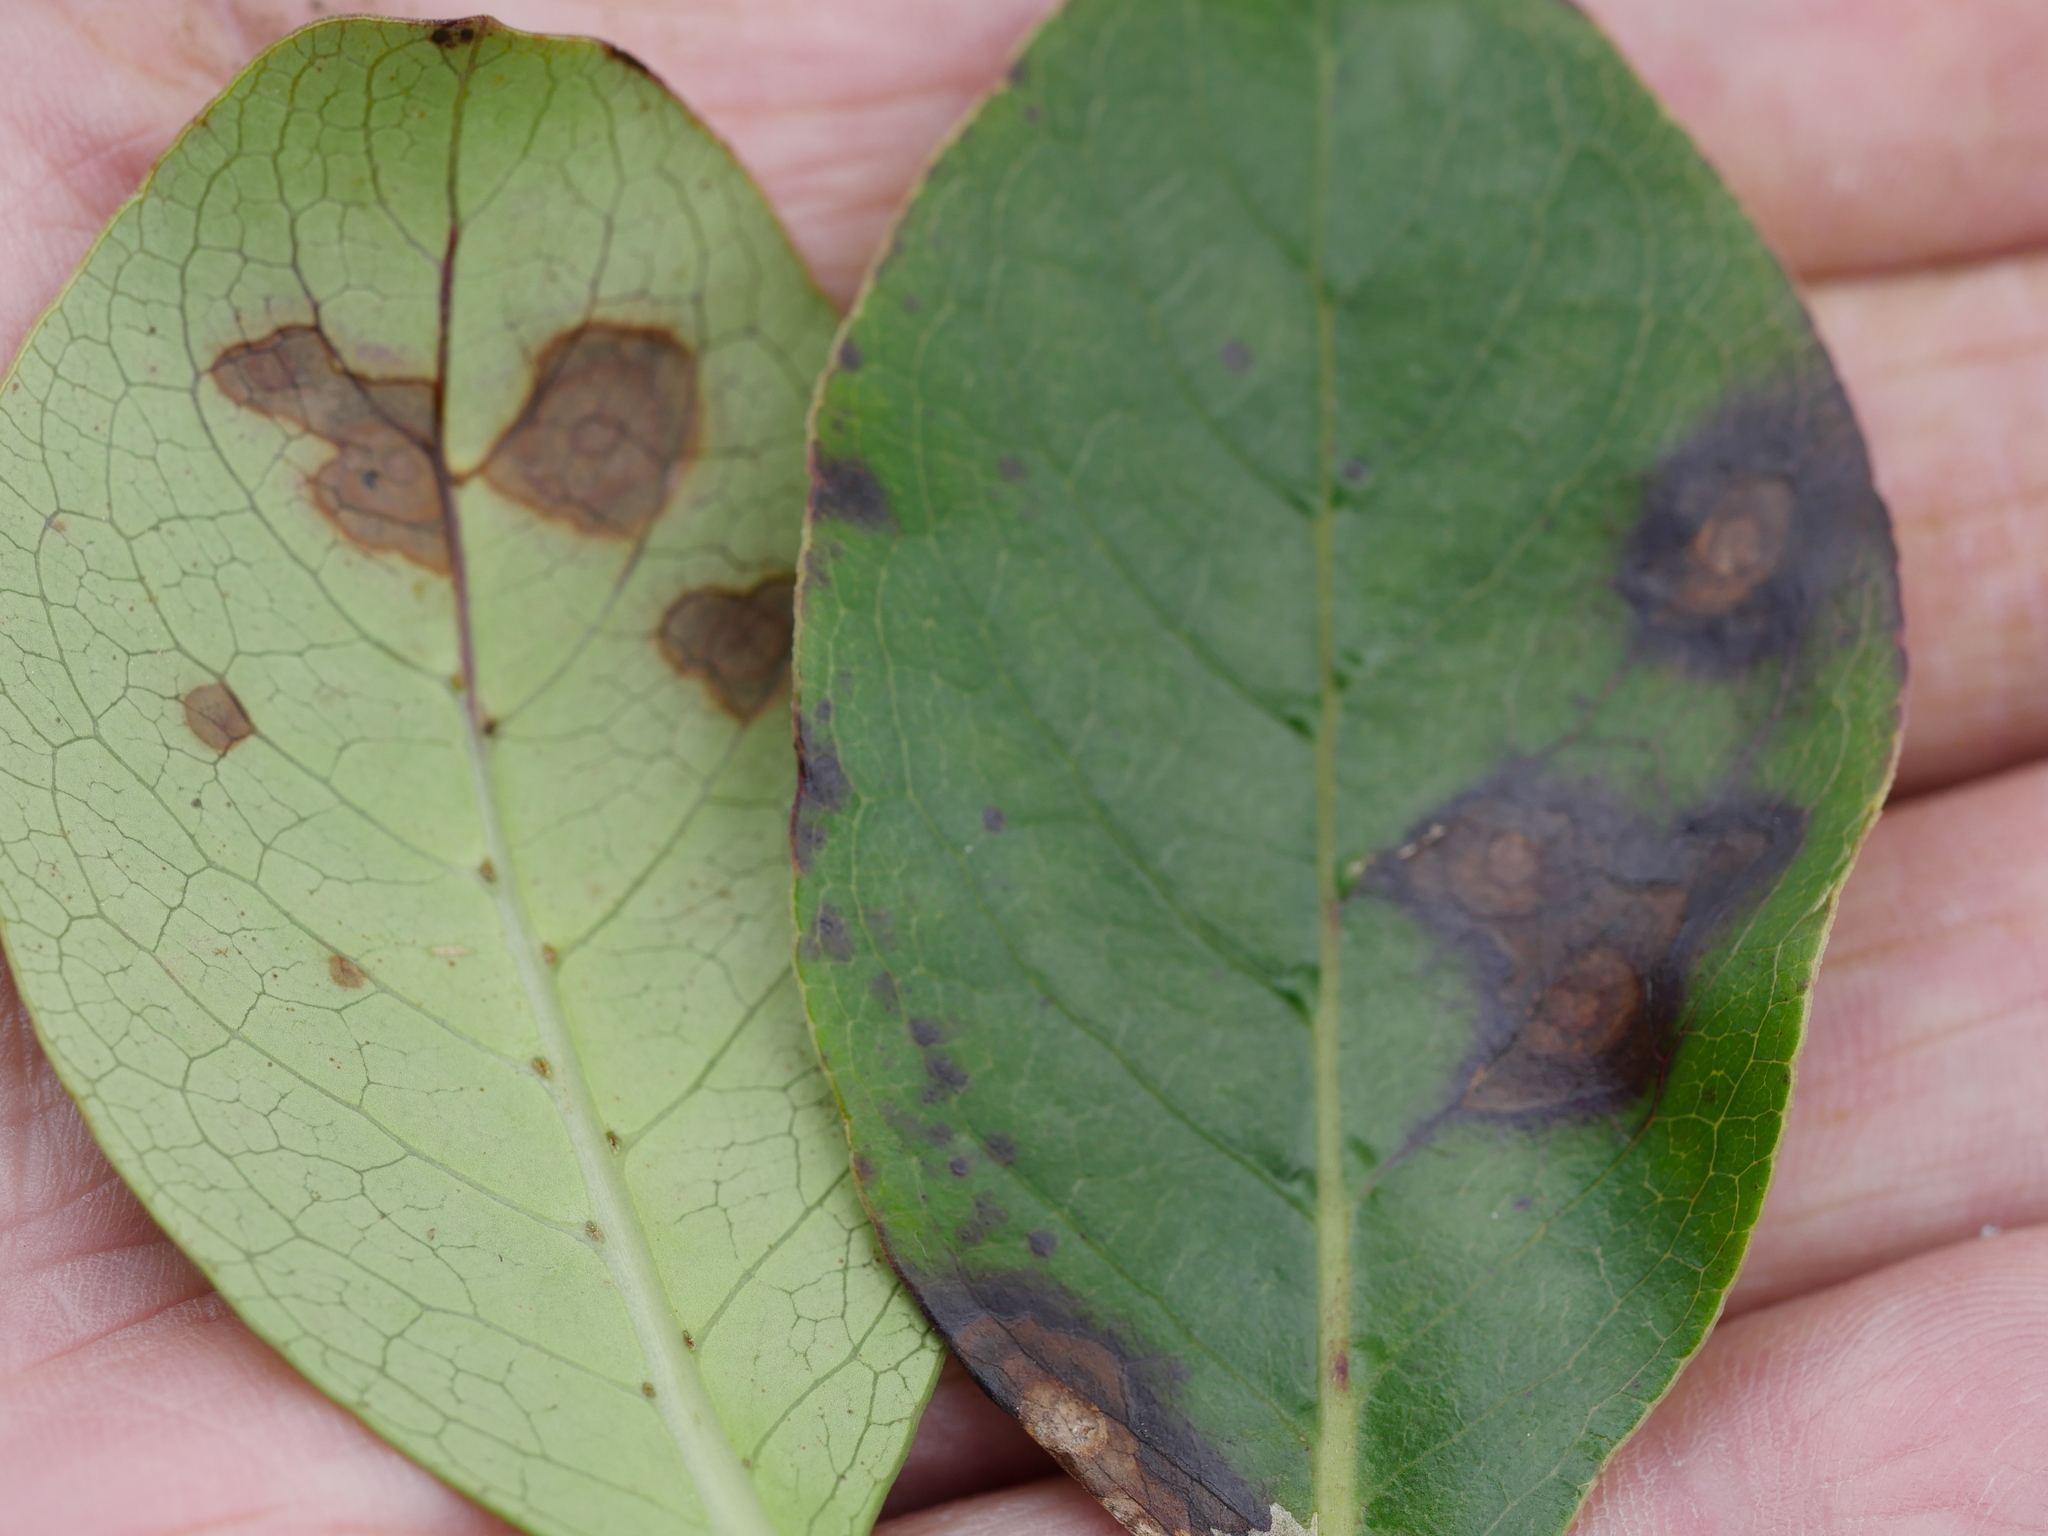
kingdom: Plantae
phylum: Tracheophyta
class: Magnoliopsida
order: Gentianales
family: Rubiaceae
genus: Coprosma
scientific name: Coprosma robusta
